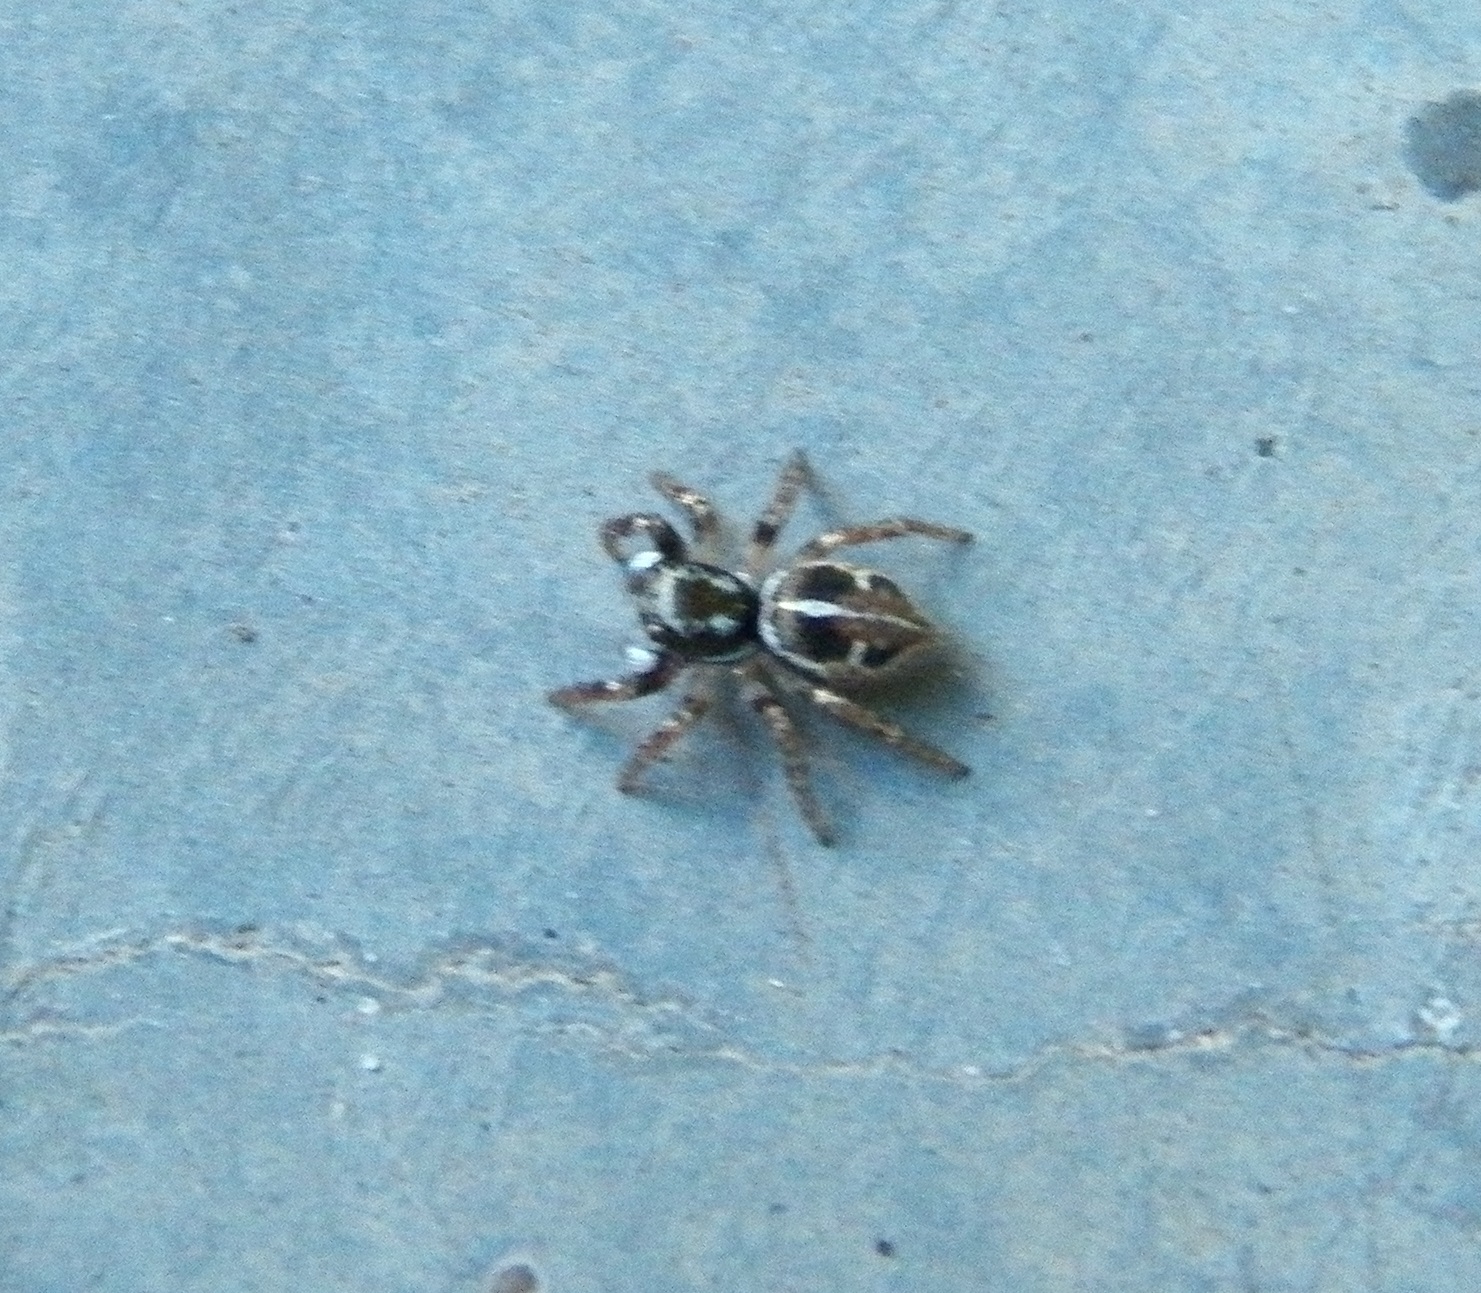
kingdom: Animalia
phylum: Arthropoda
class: Arachnida
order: Araneae
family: Salticidae
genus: Anasaitis
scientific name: Anasaitis canosa
